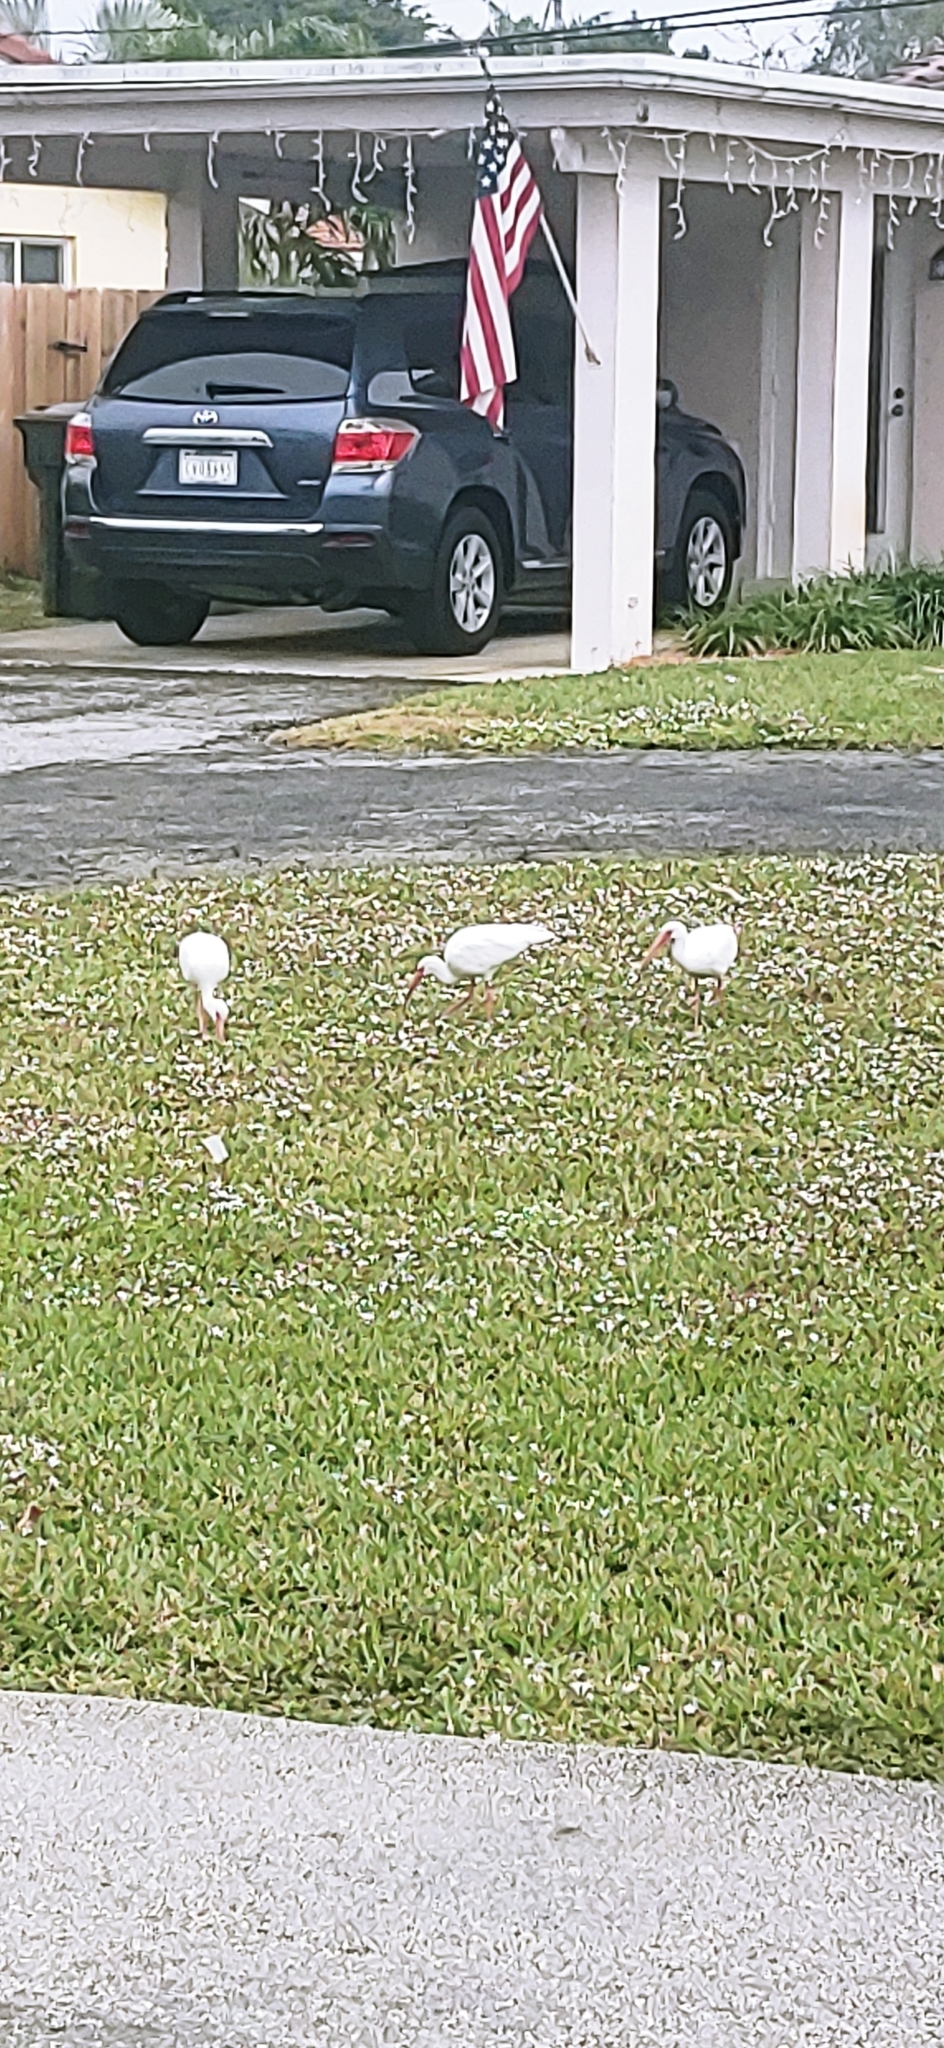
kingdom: Animalia
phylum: Chordata
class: Aves
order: Pelecaniformes
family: Threskiornithidae
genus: Eudocimus
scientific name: Eudocimus albus
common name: White ibis
